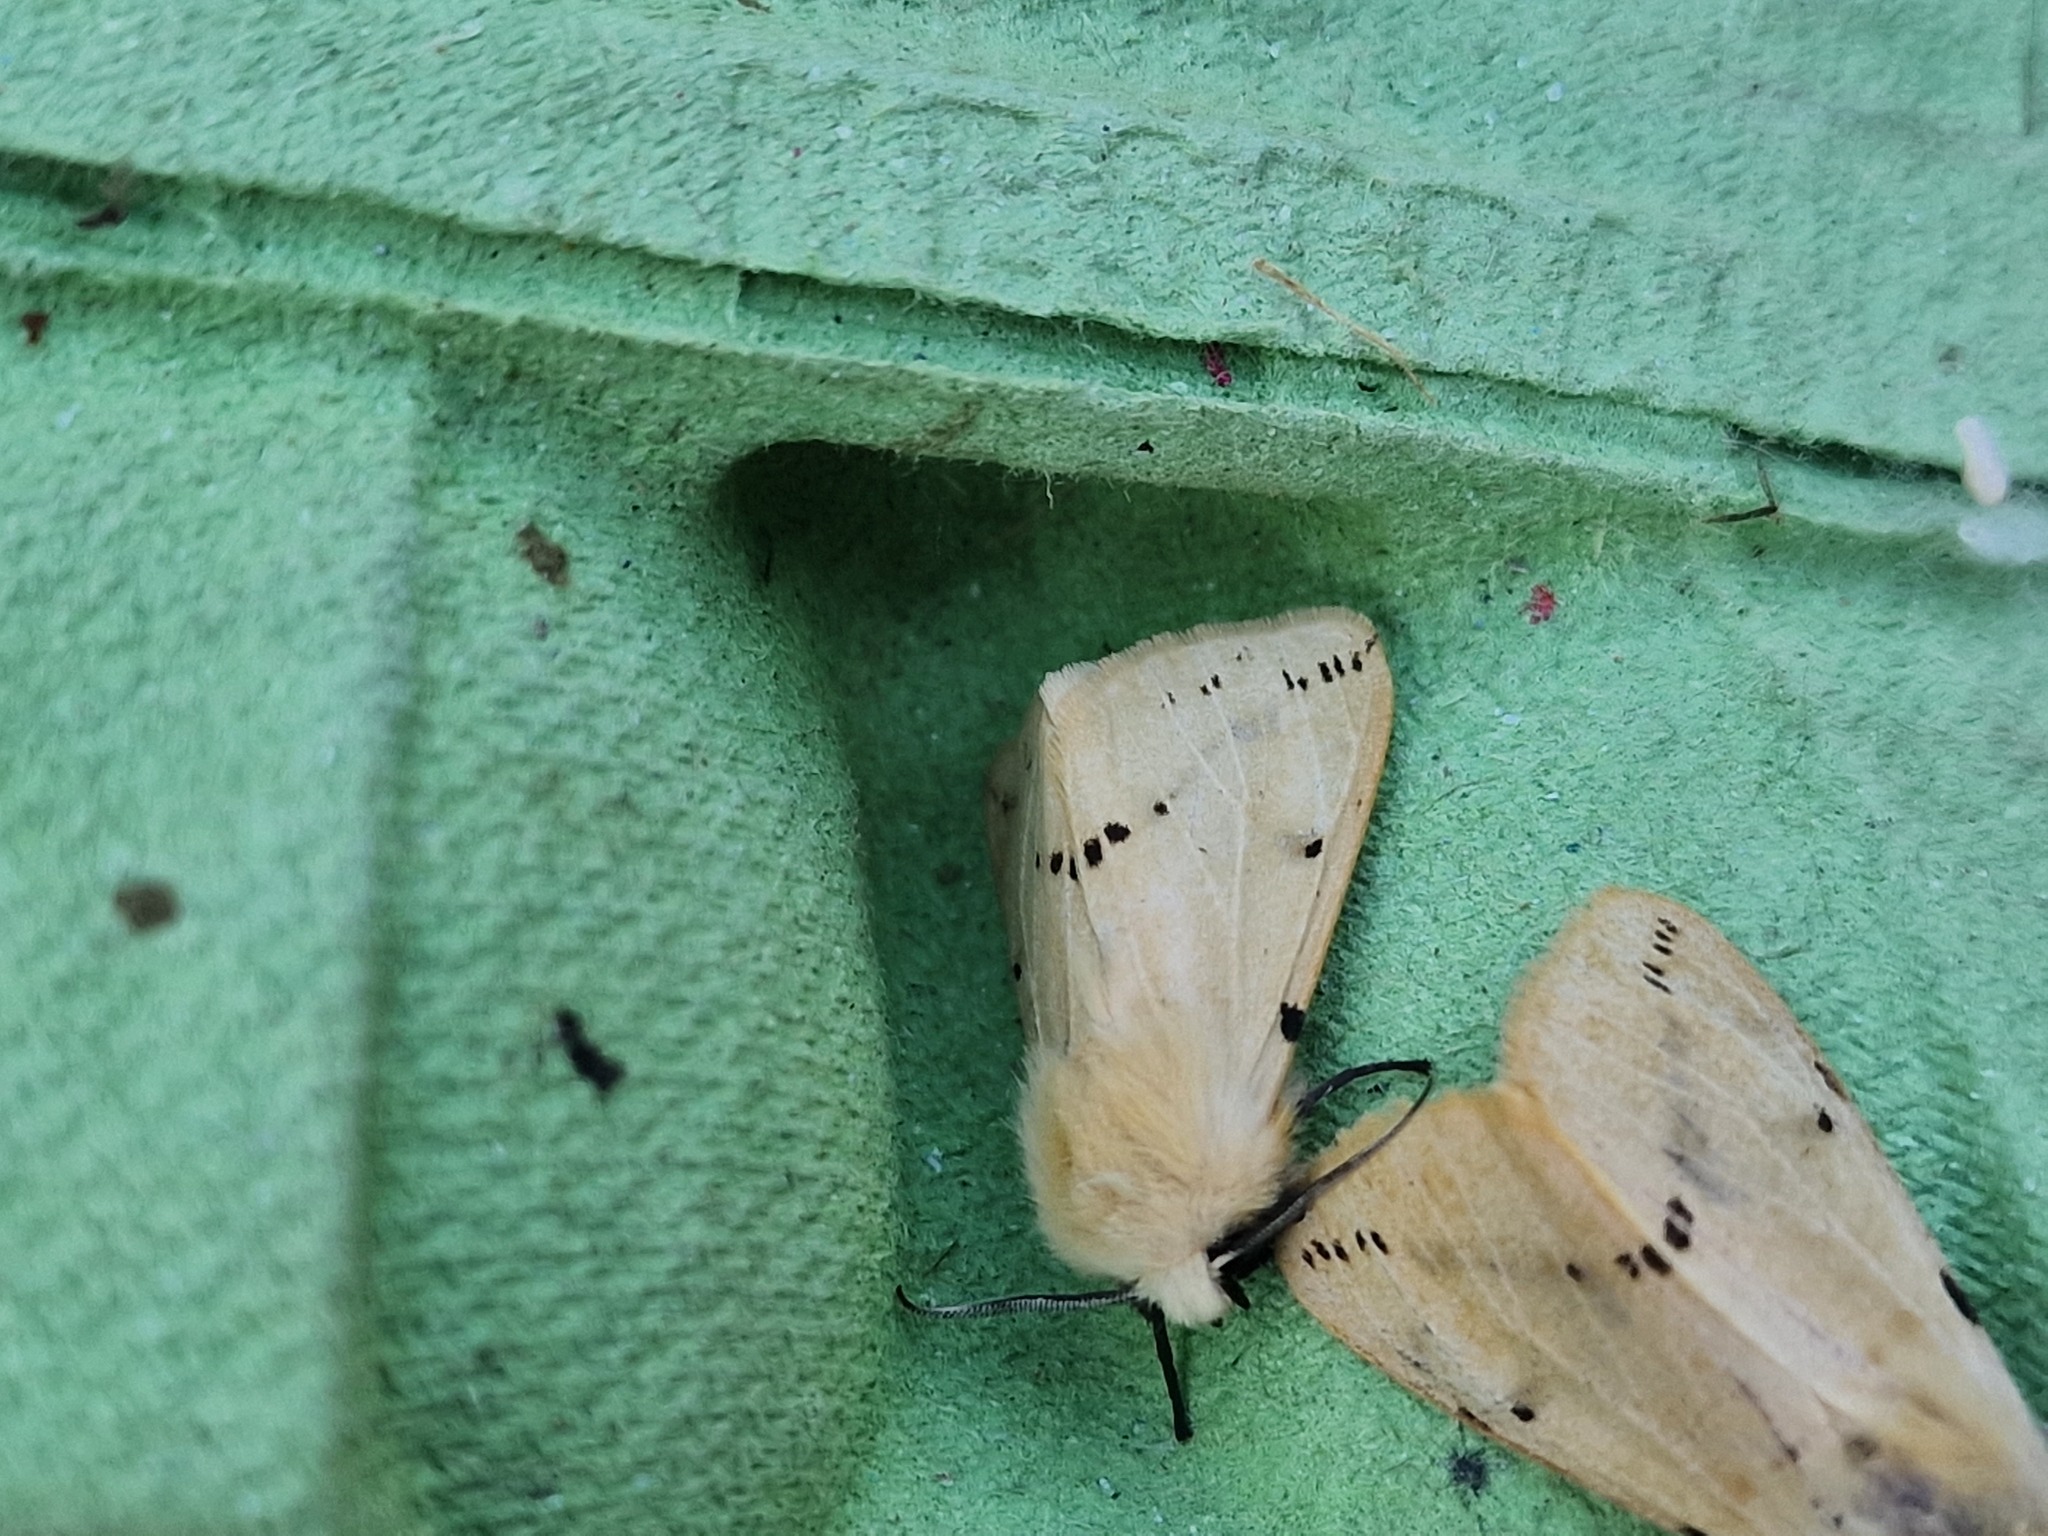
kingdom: Animalia
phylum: Arthropoda
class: Insecta
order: Lepidoptera
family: Erebidae
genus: Spilarctia
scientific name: Spilarctia lutea
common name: Buff ermine
